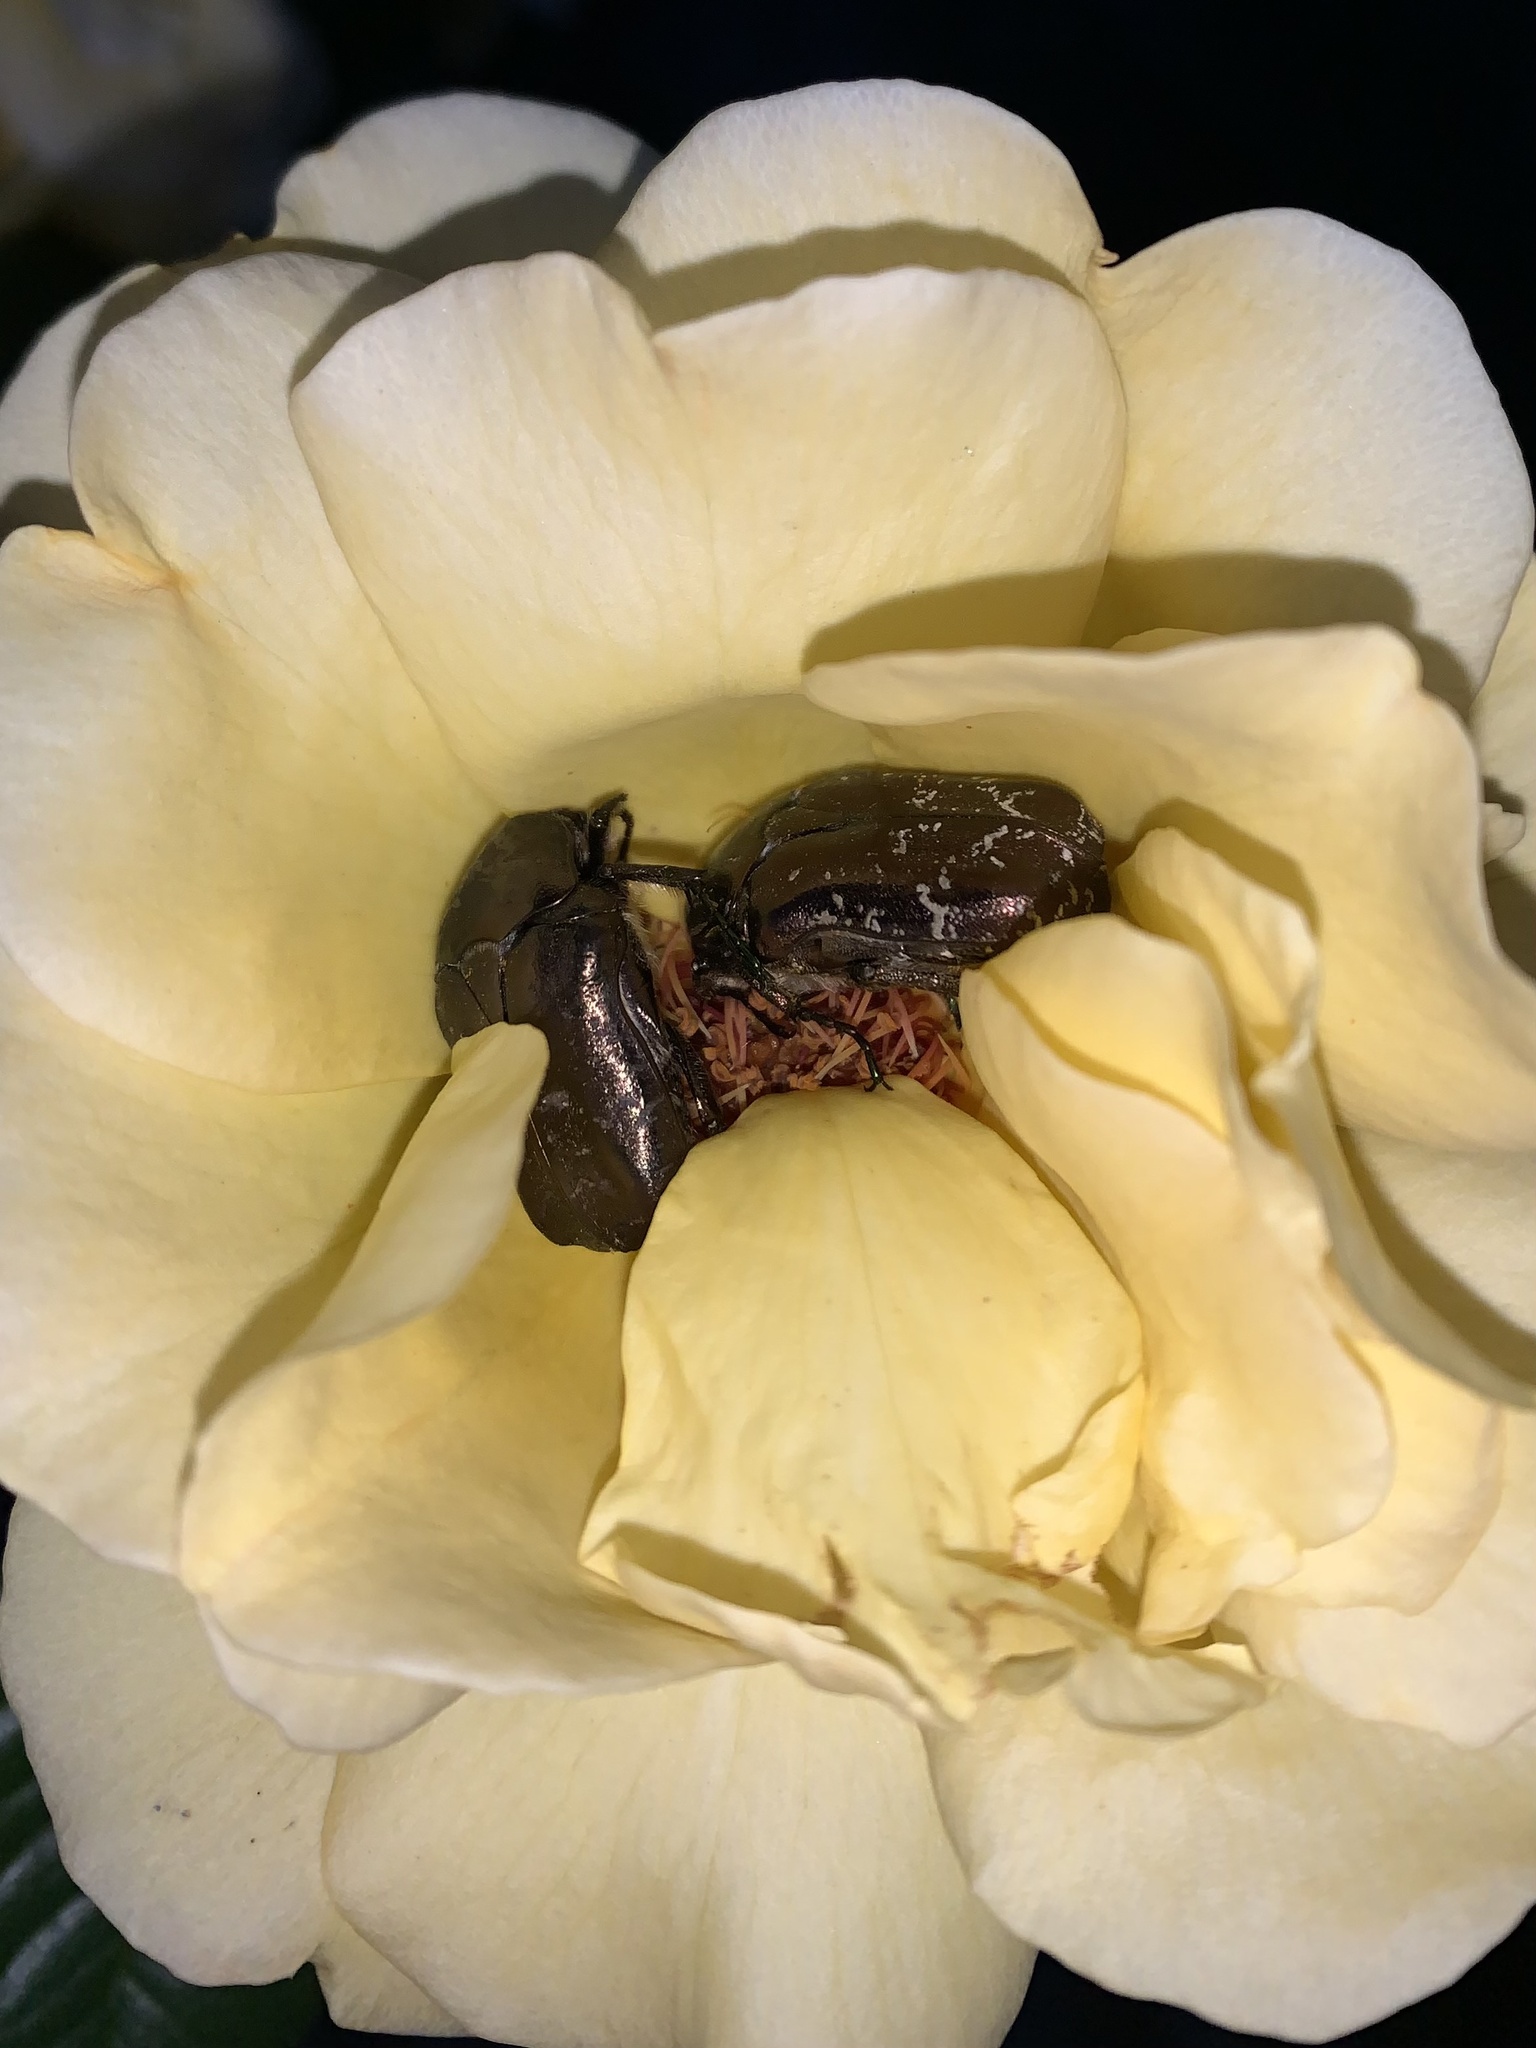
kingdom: Animalia
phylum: Arthropoda
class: Insecta
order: Coleoptera
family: Scarabaeidae
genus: Protaetia
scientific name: Protaetia cuprea
